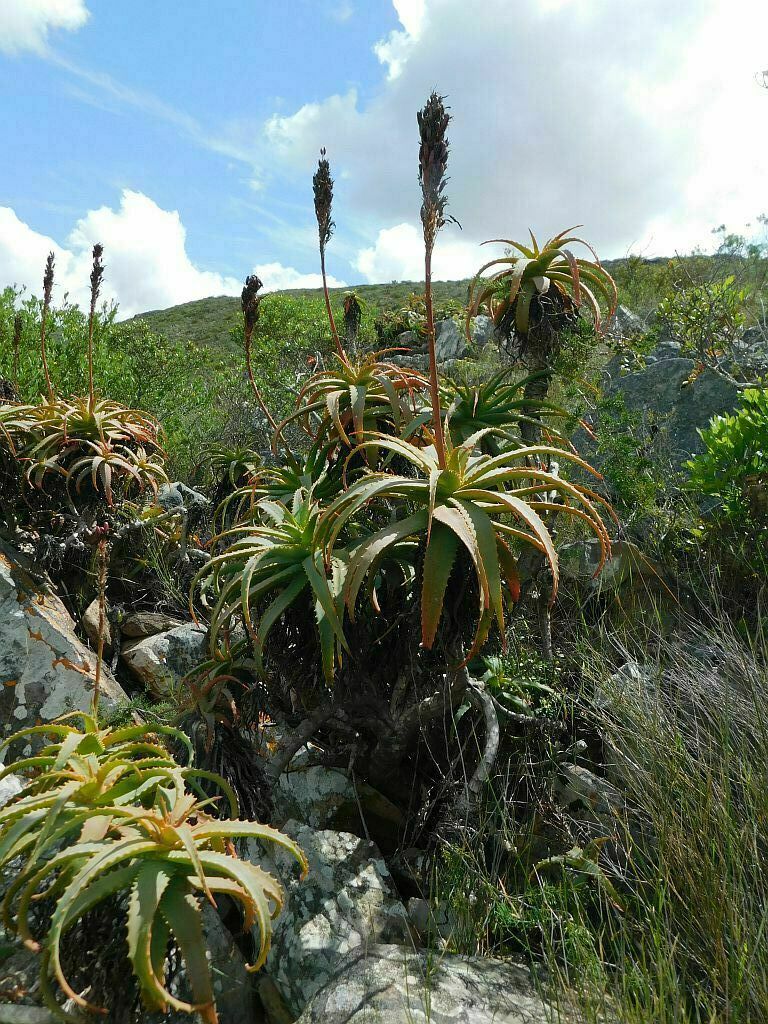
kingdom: Plantae
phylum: Tracheophyta
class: Liliopsida
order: Asparagales
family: Asphodelaceae
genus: Aloe
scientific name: Aloe arborescens
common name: Candelabra aloe
